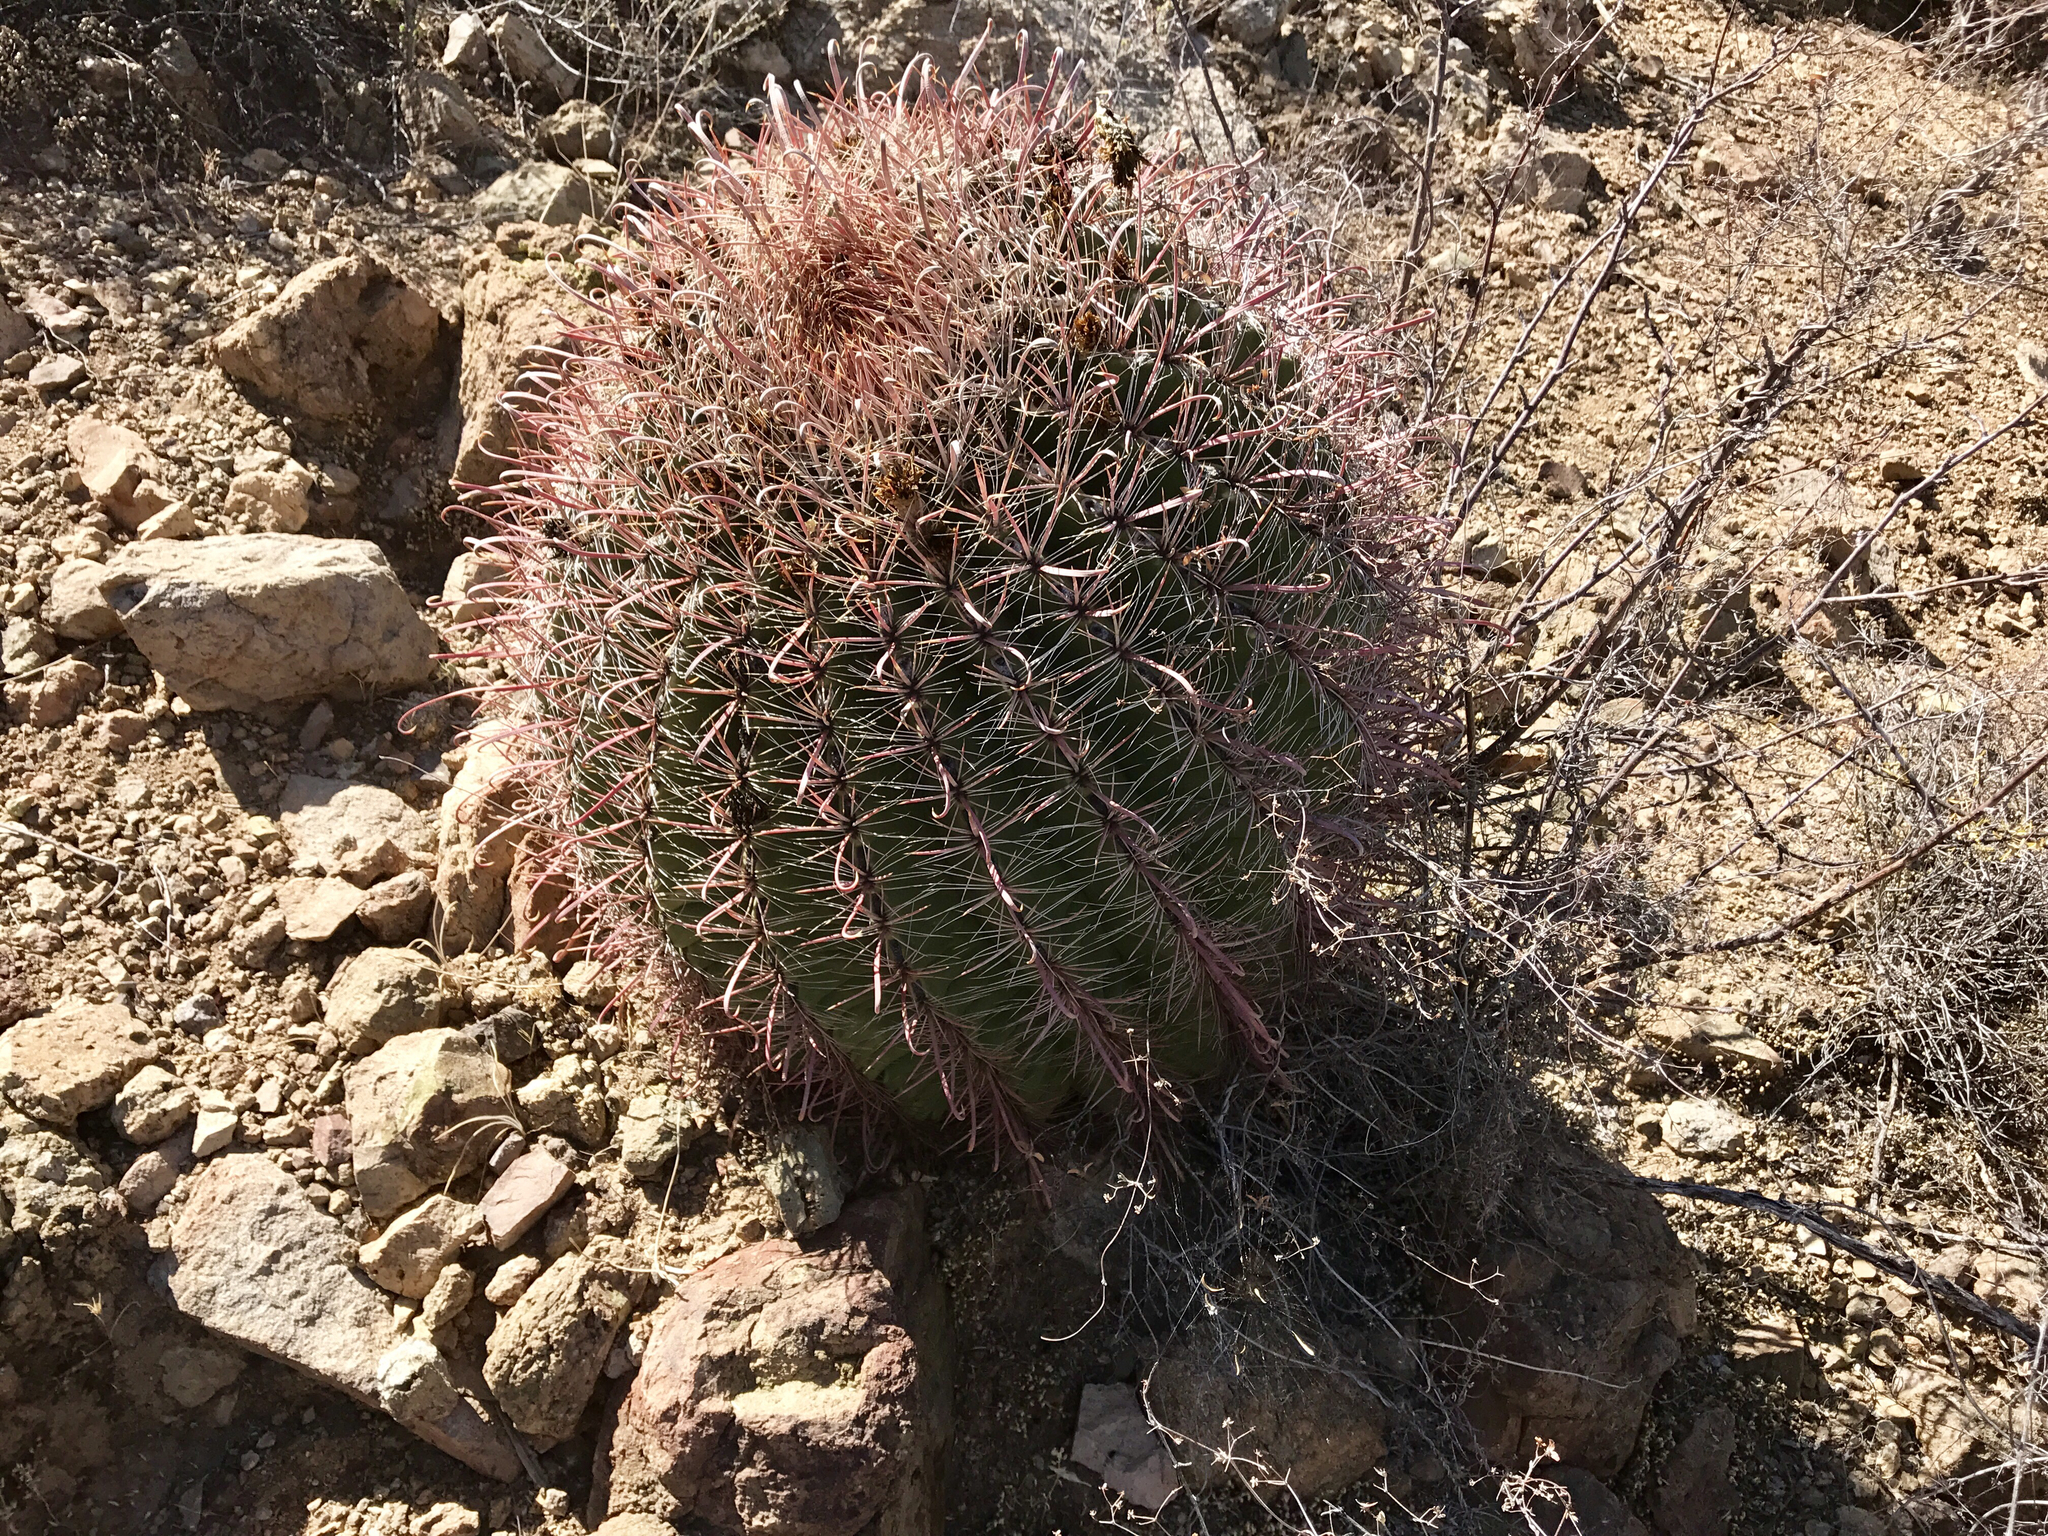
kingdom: Plantae
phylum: Tracheophyta
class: Magnoliopsida
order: Caryophyllales
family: Cactaceae
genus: Ferocactus
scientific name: Ferocactus wislizeni
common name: Candy barrel cactus
